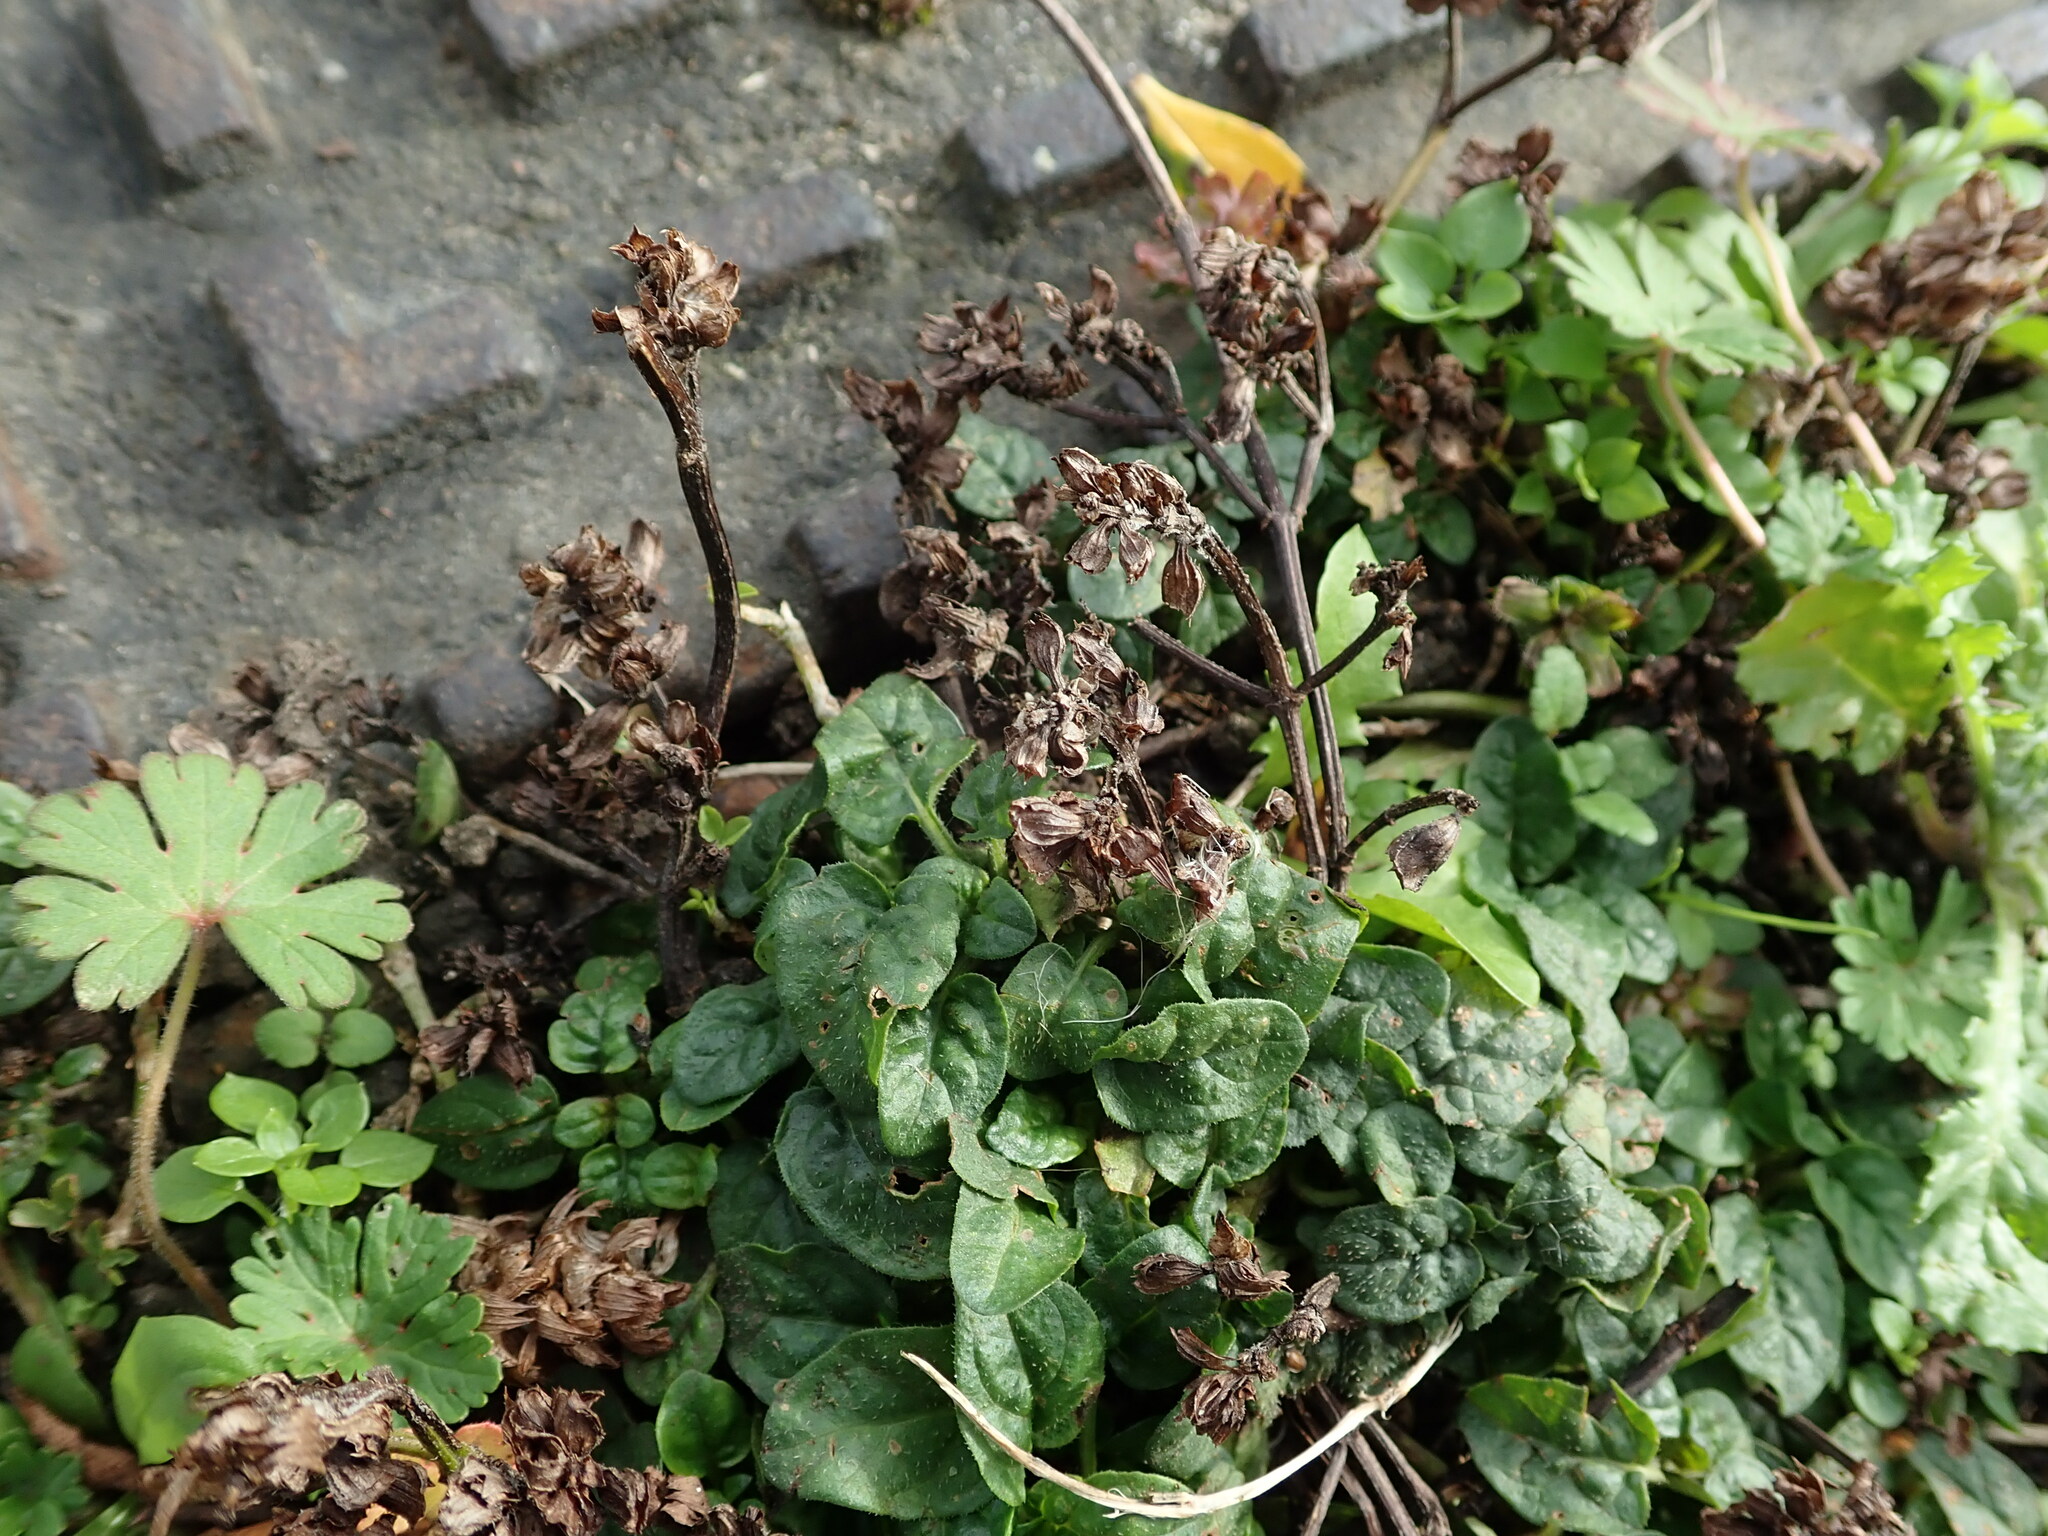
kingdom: Plantae
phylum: Tracheophyta
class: Magnoliopsida
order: Lamiales
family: Lamiaceae
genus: Prunella
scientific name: Prunella vulgaris
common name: Heal-all
